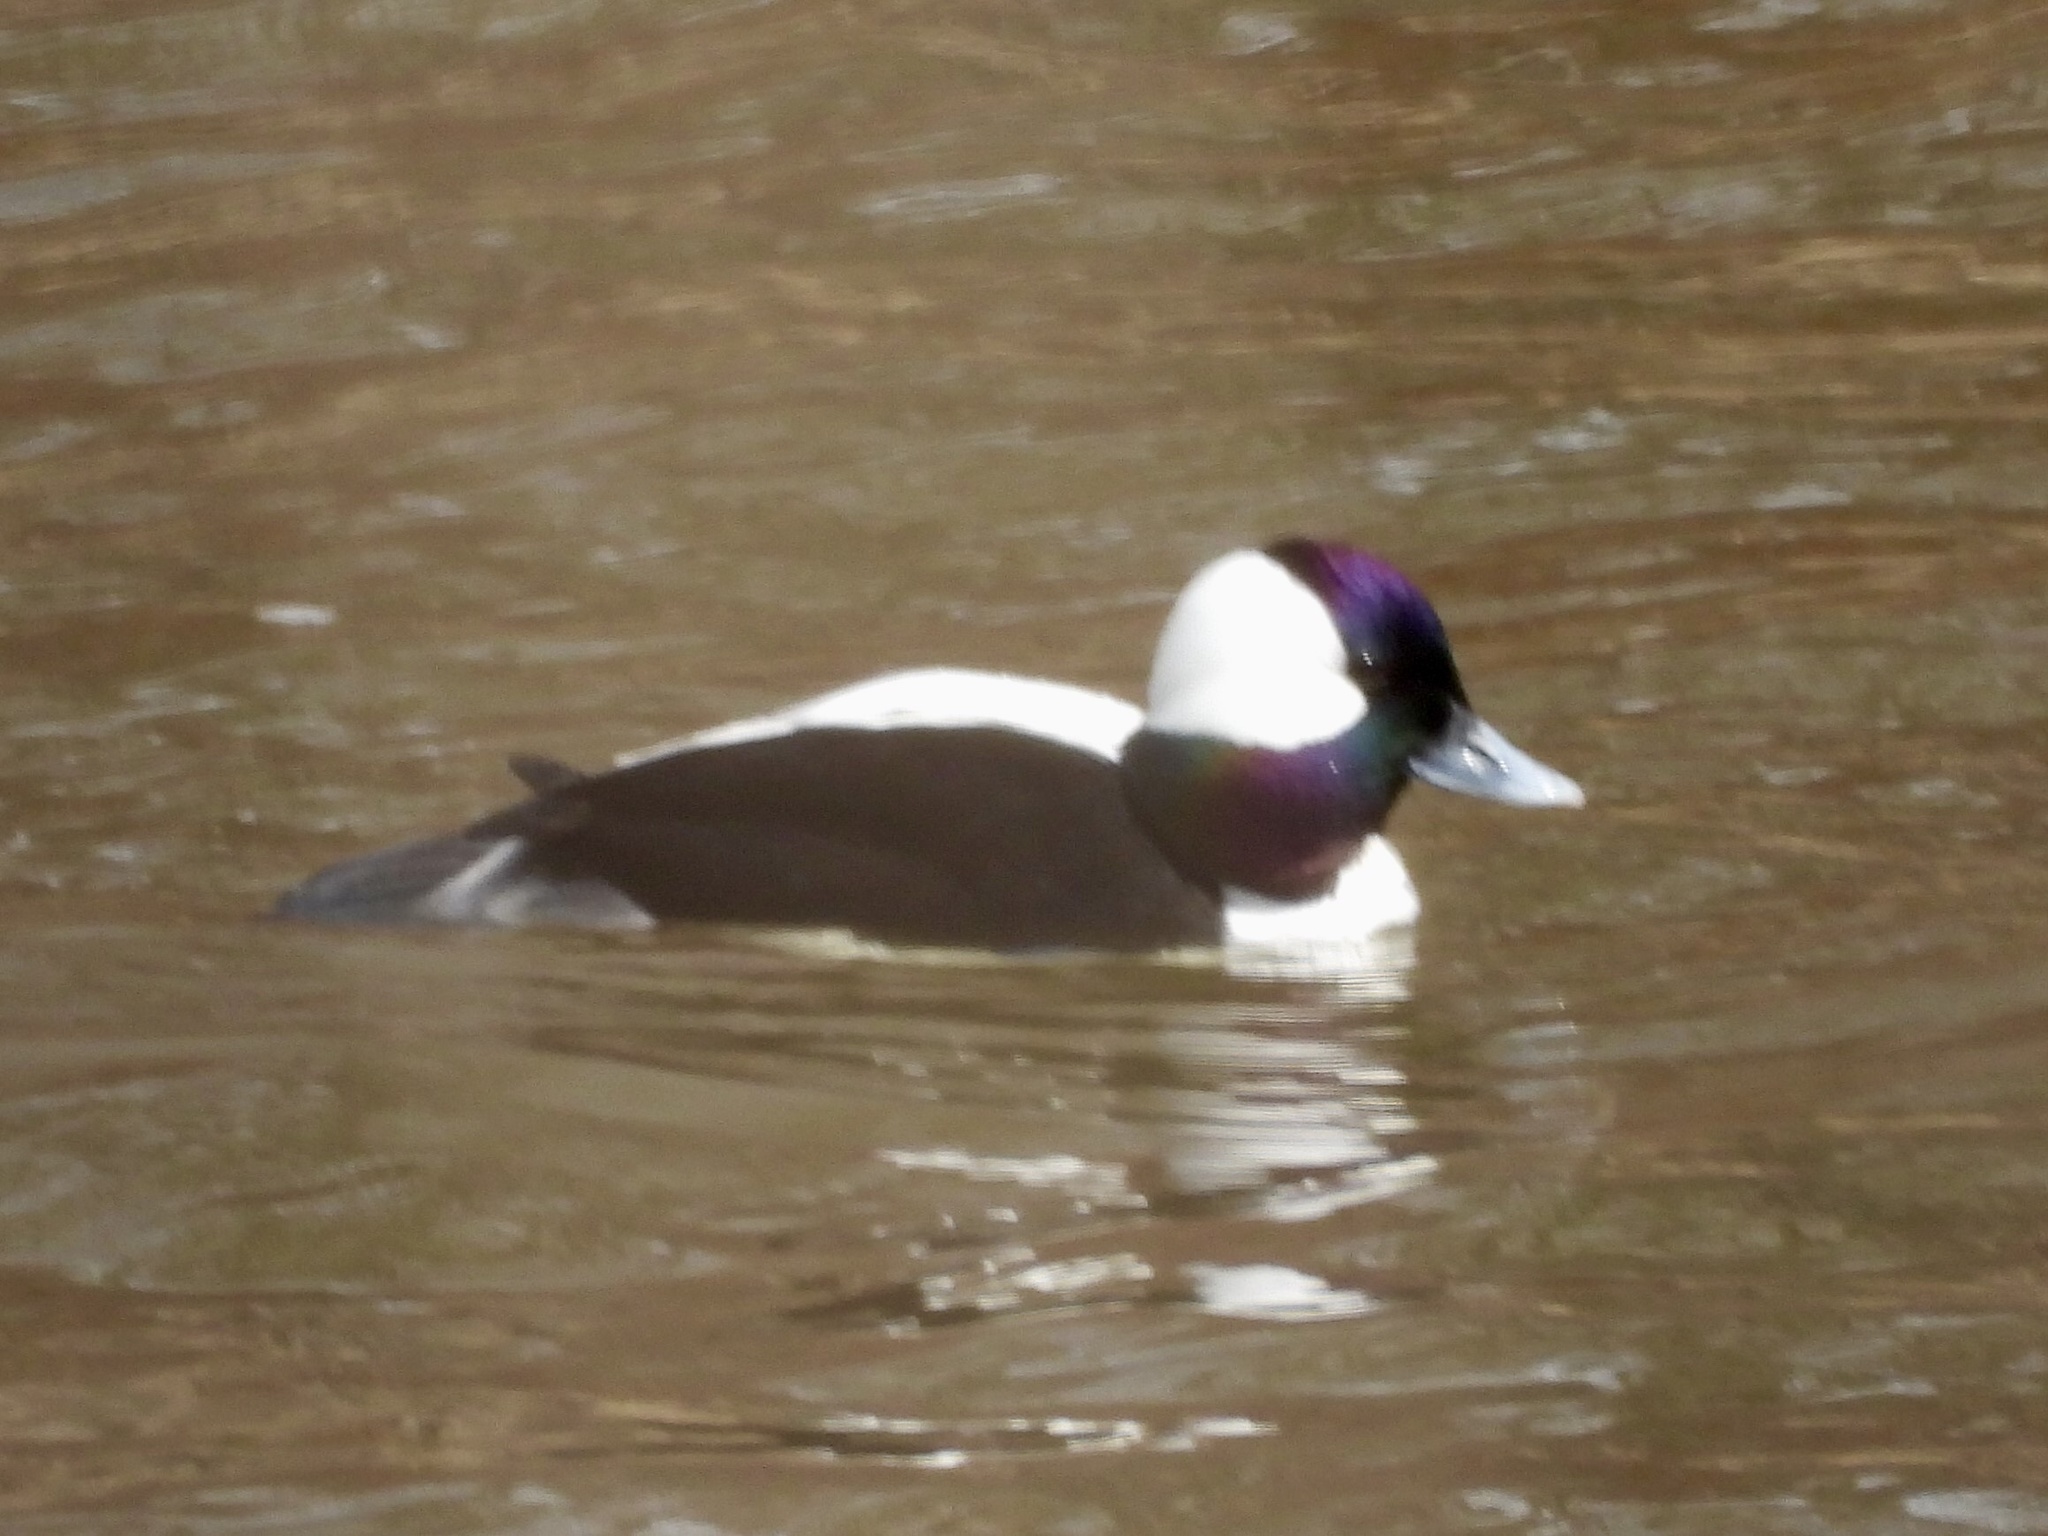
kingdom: Animalia
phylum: Chordata
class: Aves
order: Anseriformes
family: Anatidae
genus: Bucephala
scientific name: Bucephala albeola
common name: Bufflehead
